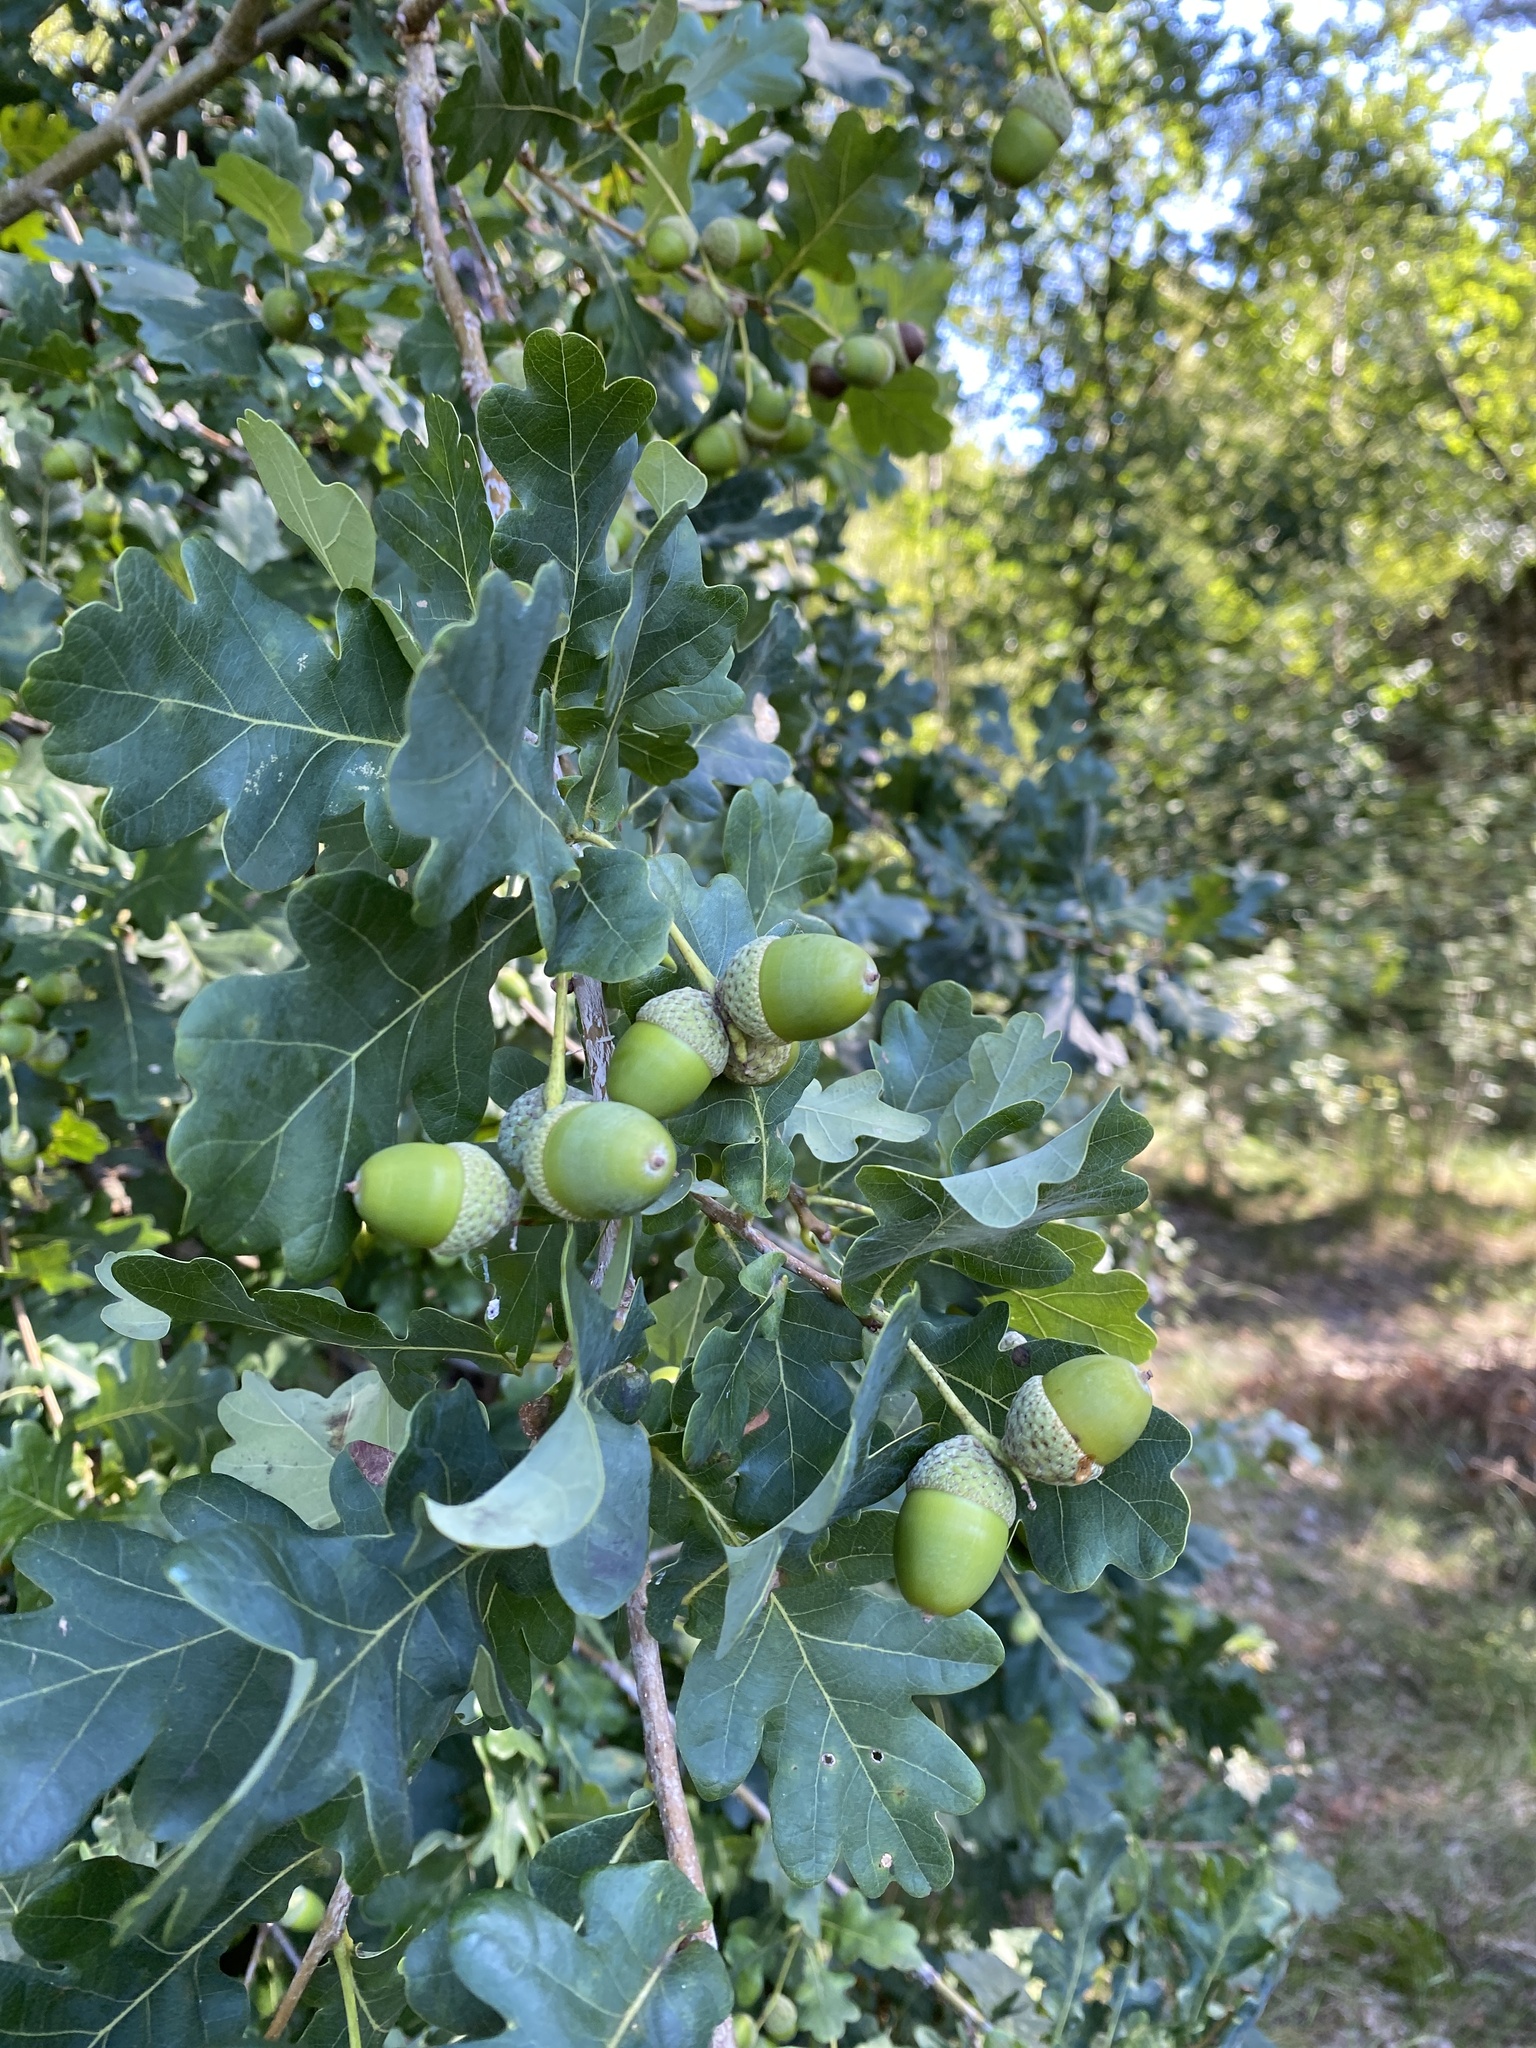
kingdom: Plantae
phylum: Tracheophyta
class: Magnoliopsida
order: Fagales
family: Fagaceae
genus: Quercus
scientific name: Quercus robur
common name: Pedunculate oak
